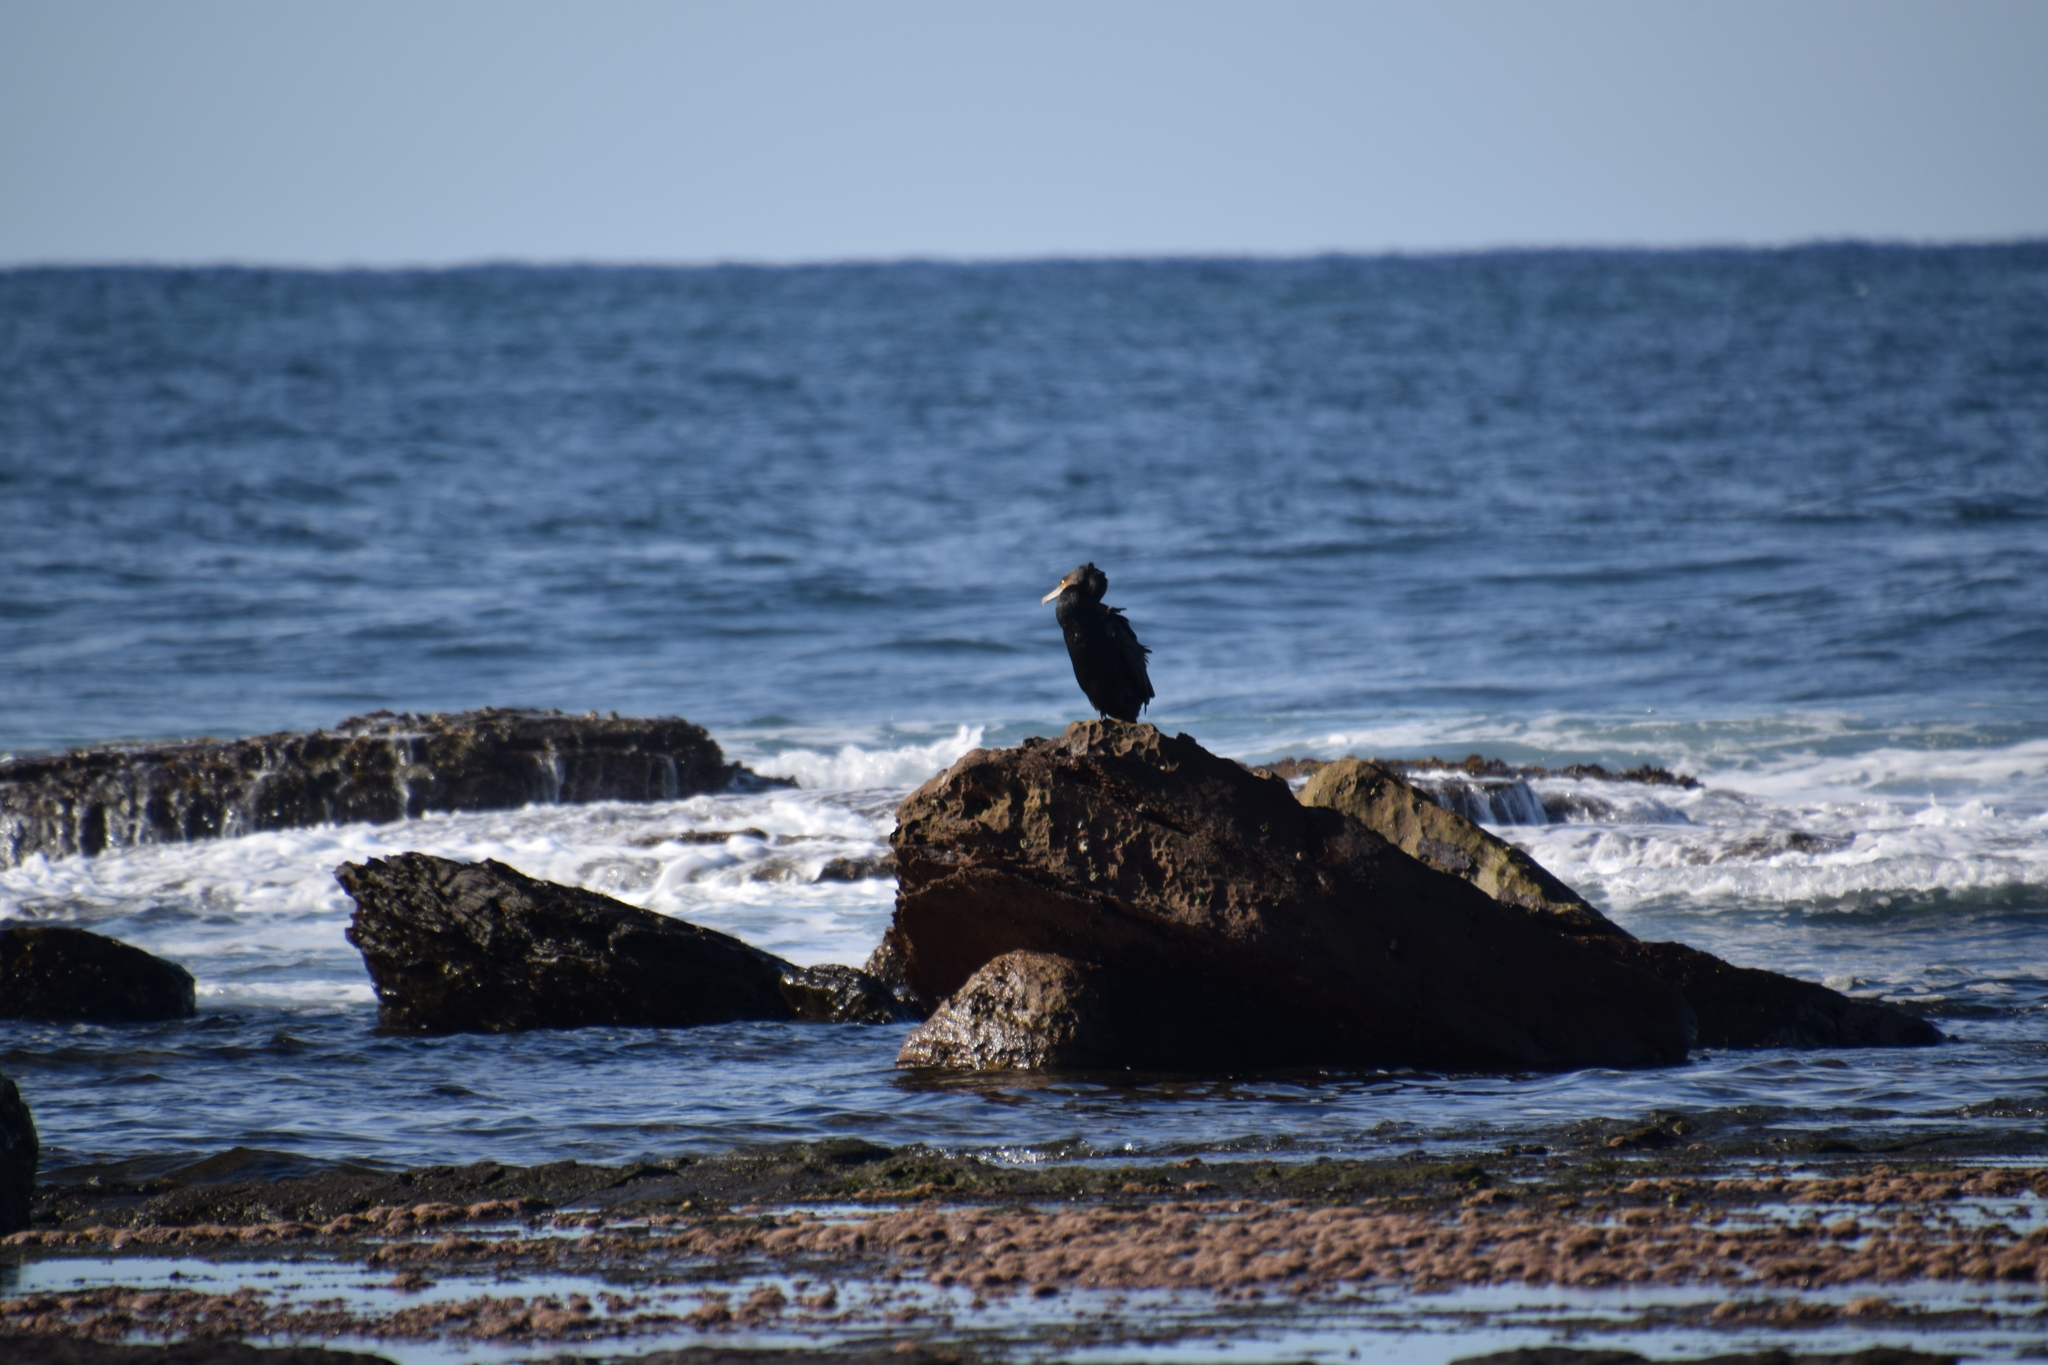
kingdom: Animalia
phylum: Chordata
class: Aves
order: Suliformes
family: Phalacrocoracidae
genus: Phalacrocorax
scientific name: Phalacrocorax carbo
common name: Great cormorant
